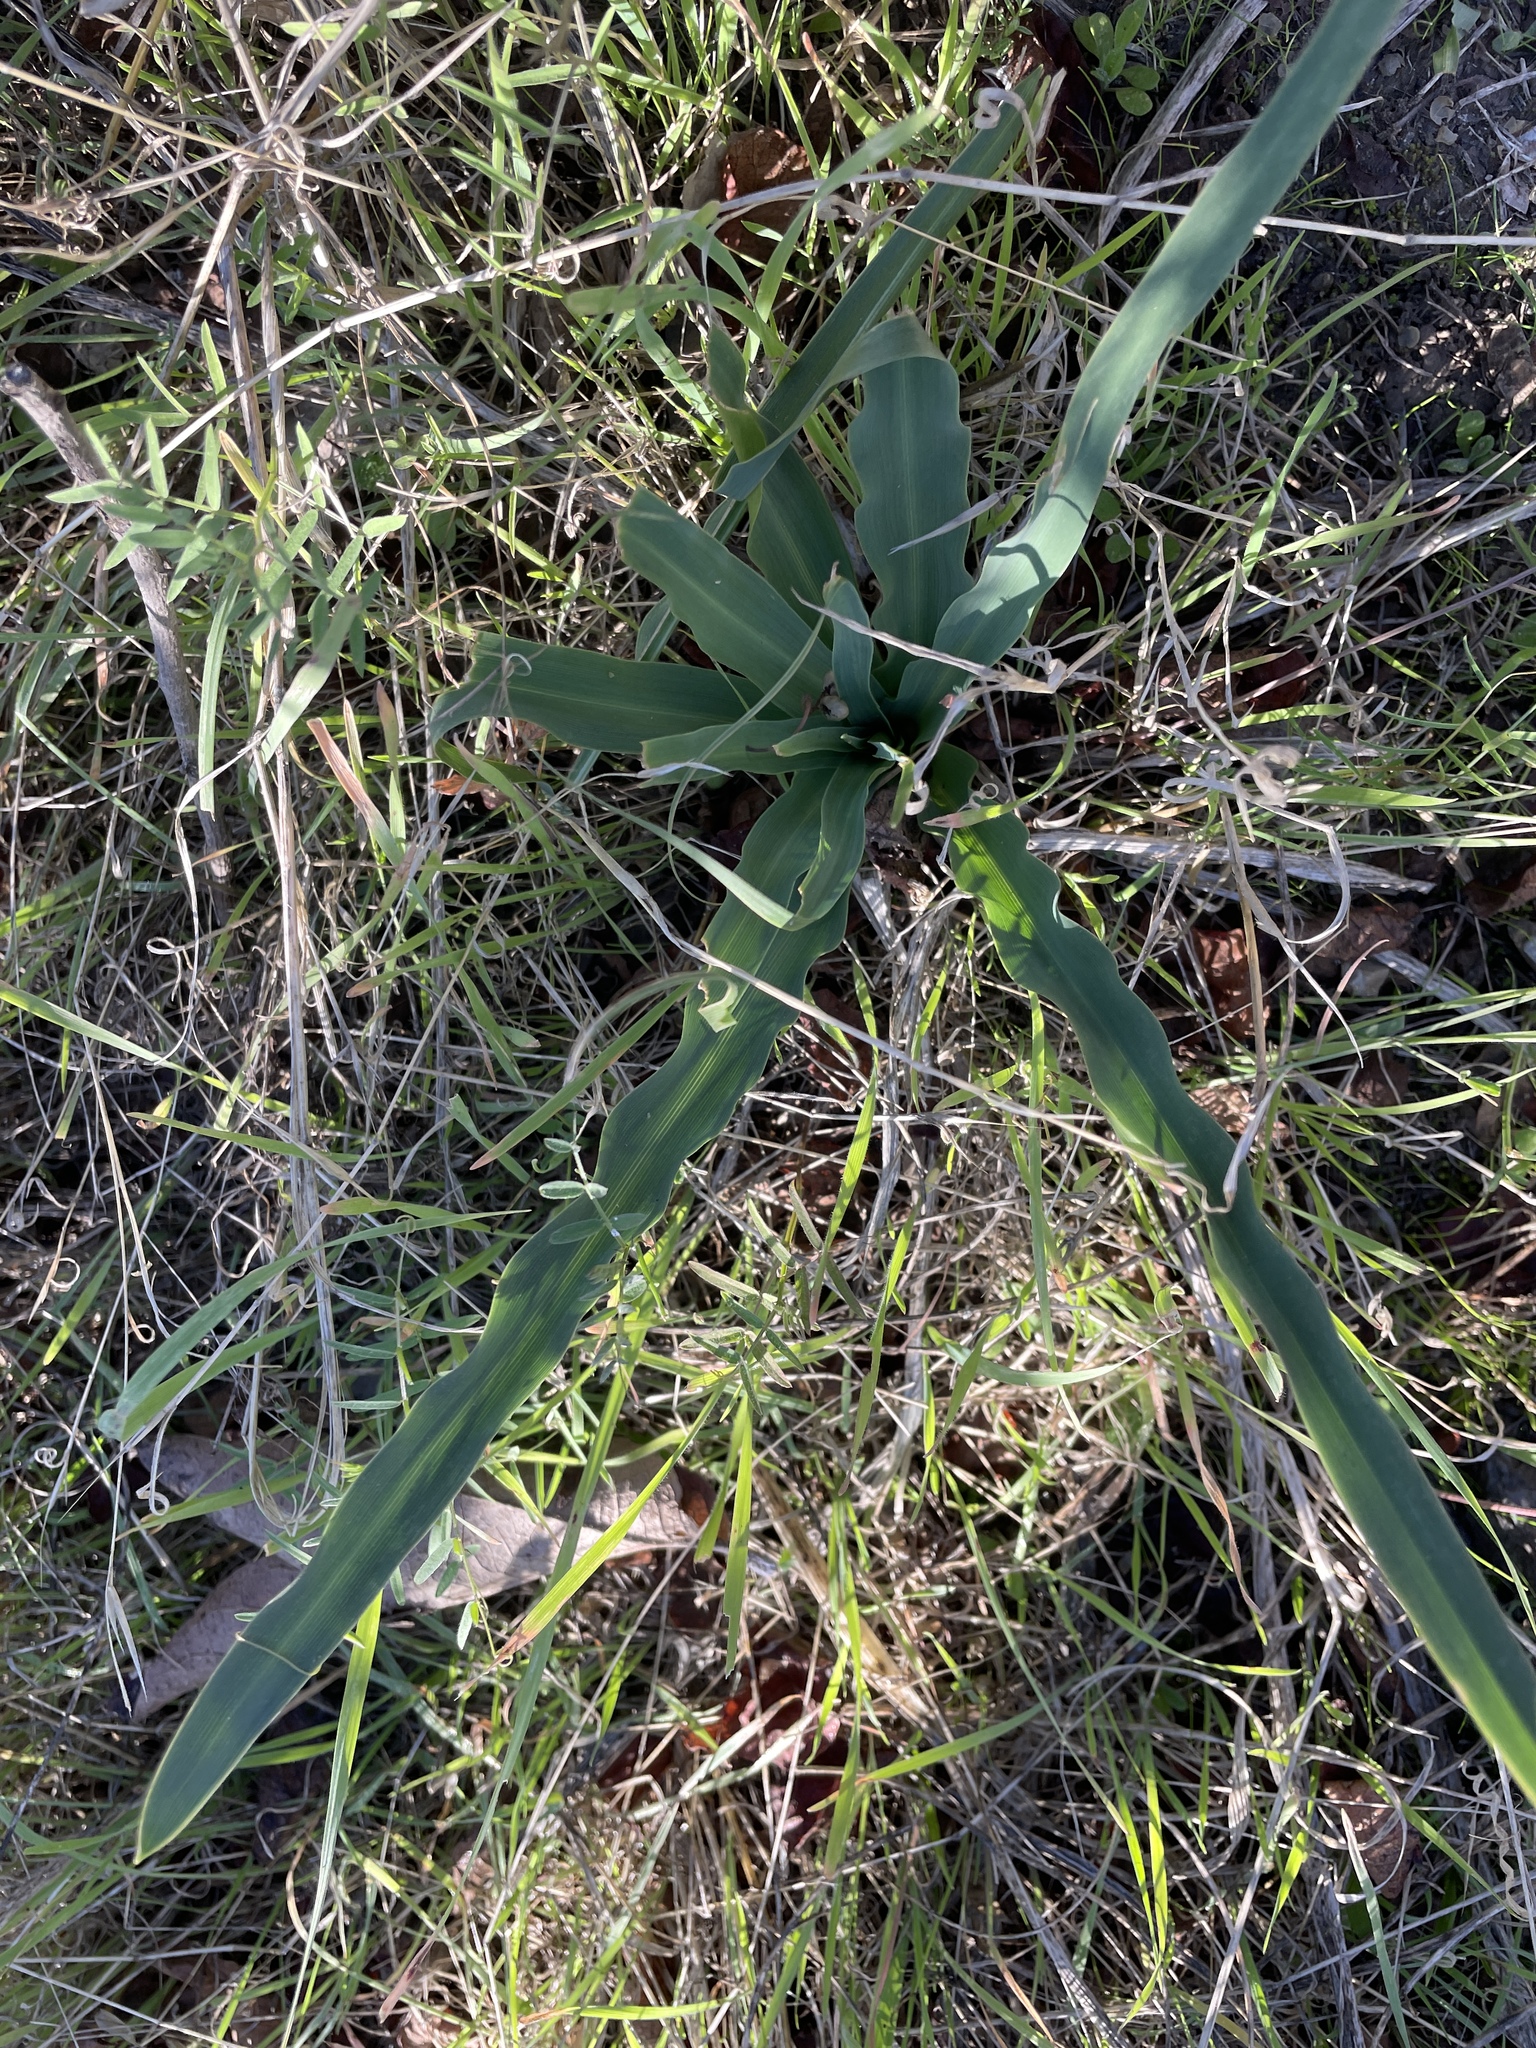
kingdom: Plantae
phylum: Tracheophyta
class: Liliopsida
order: Asparagales
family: Asparagaceae
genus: Chlorogalum
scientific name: Chlorogalum pomeridianum
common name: Amole
